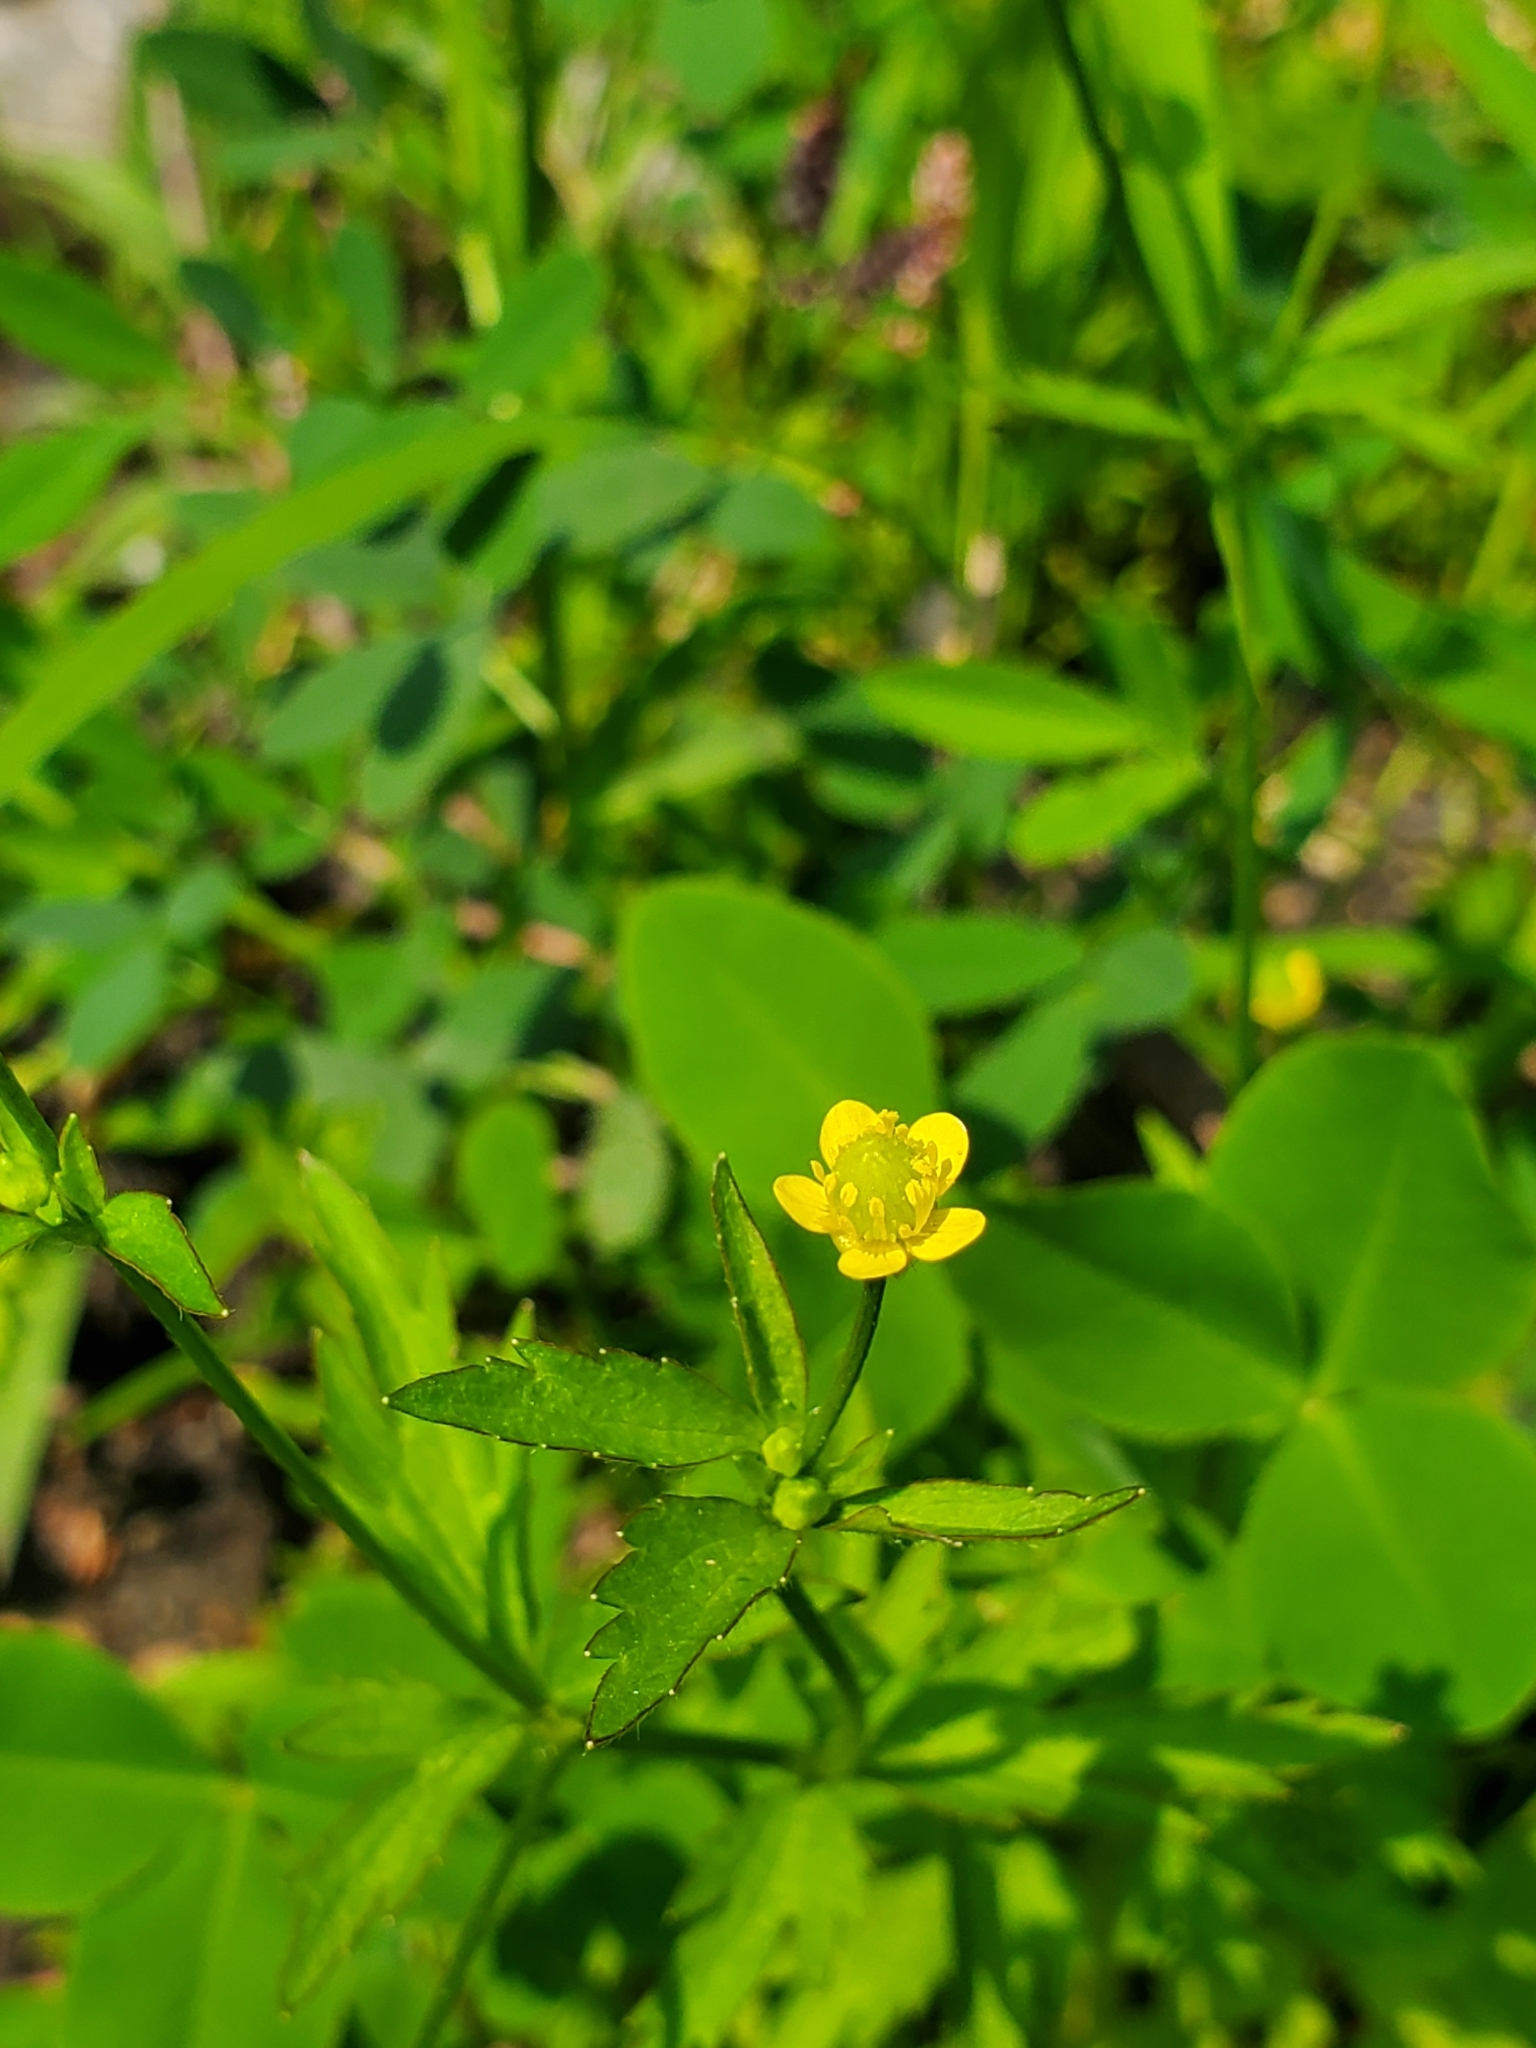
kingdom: Plantae
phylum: Tracheophyta
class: Magnoliopsida
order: Ranunculales
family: Ranunculaceae
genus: Ranunculus
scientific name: Ranunculus pensylvanicus
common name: Bristly buttercup
